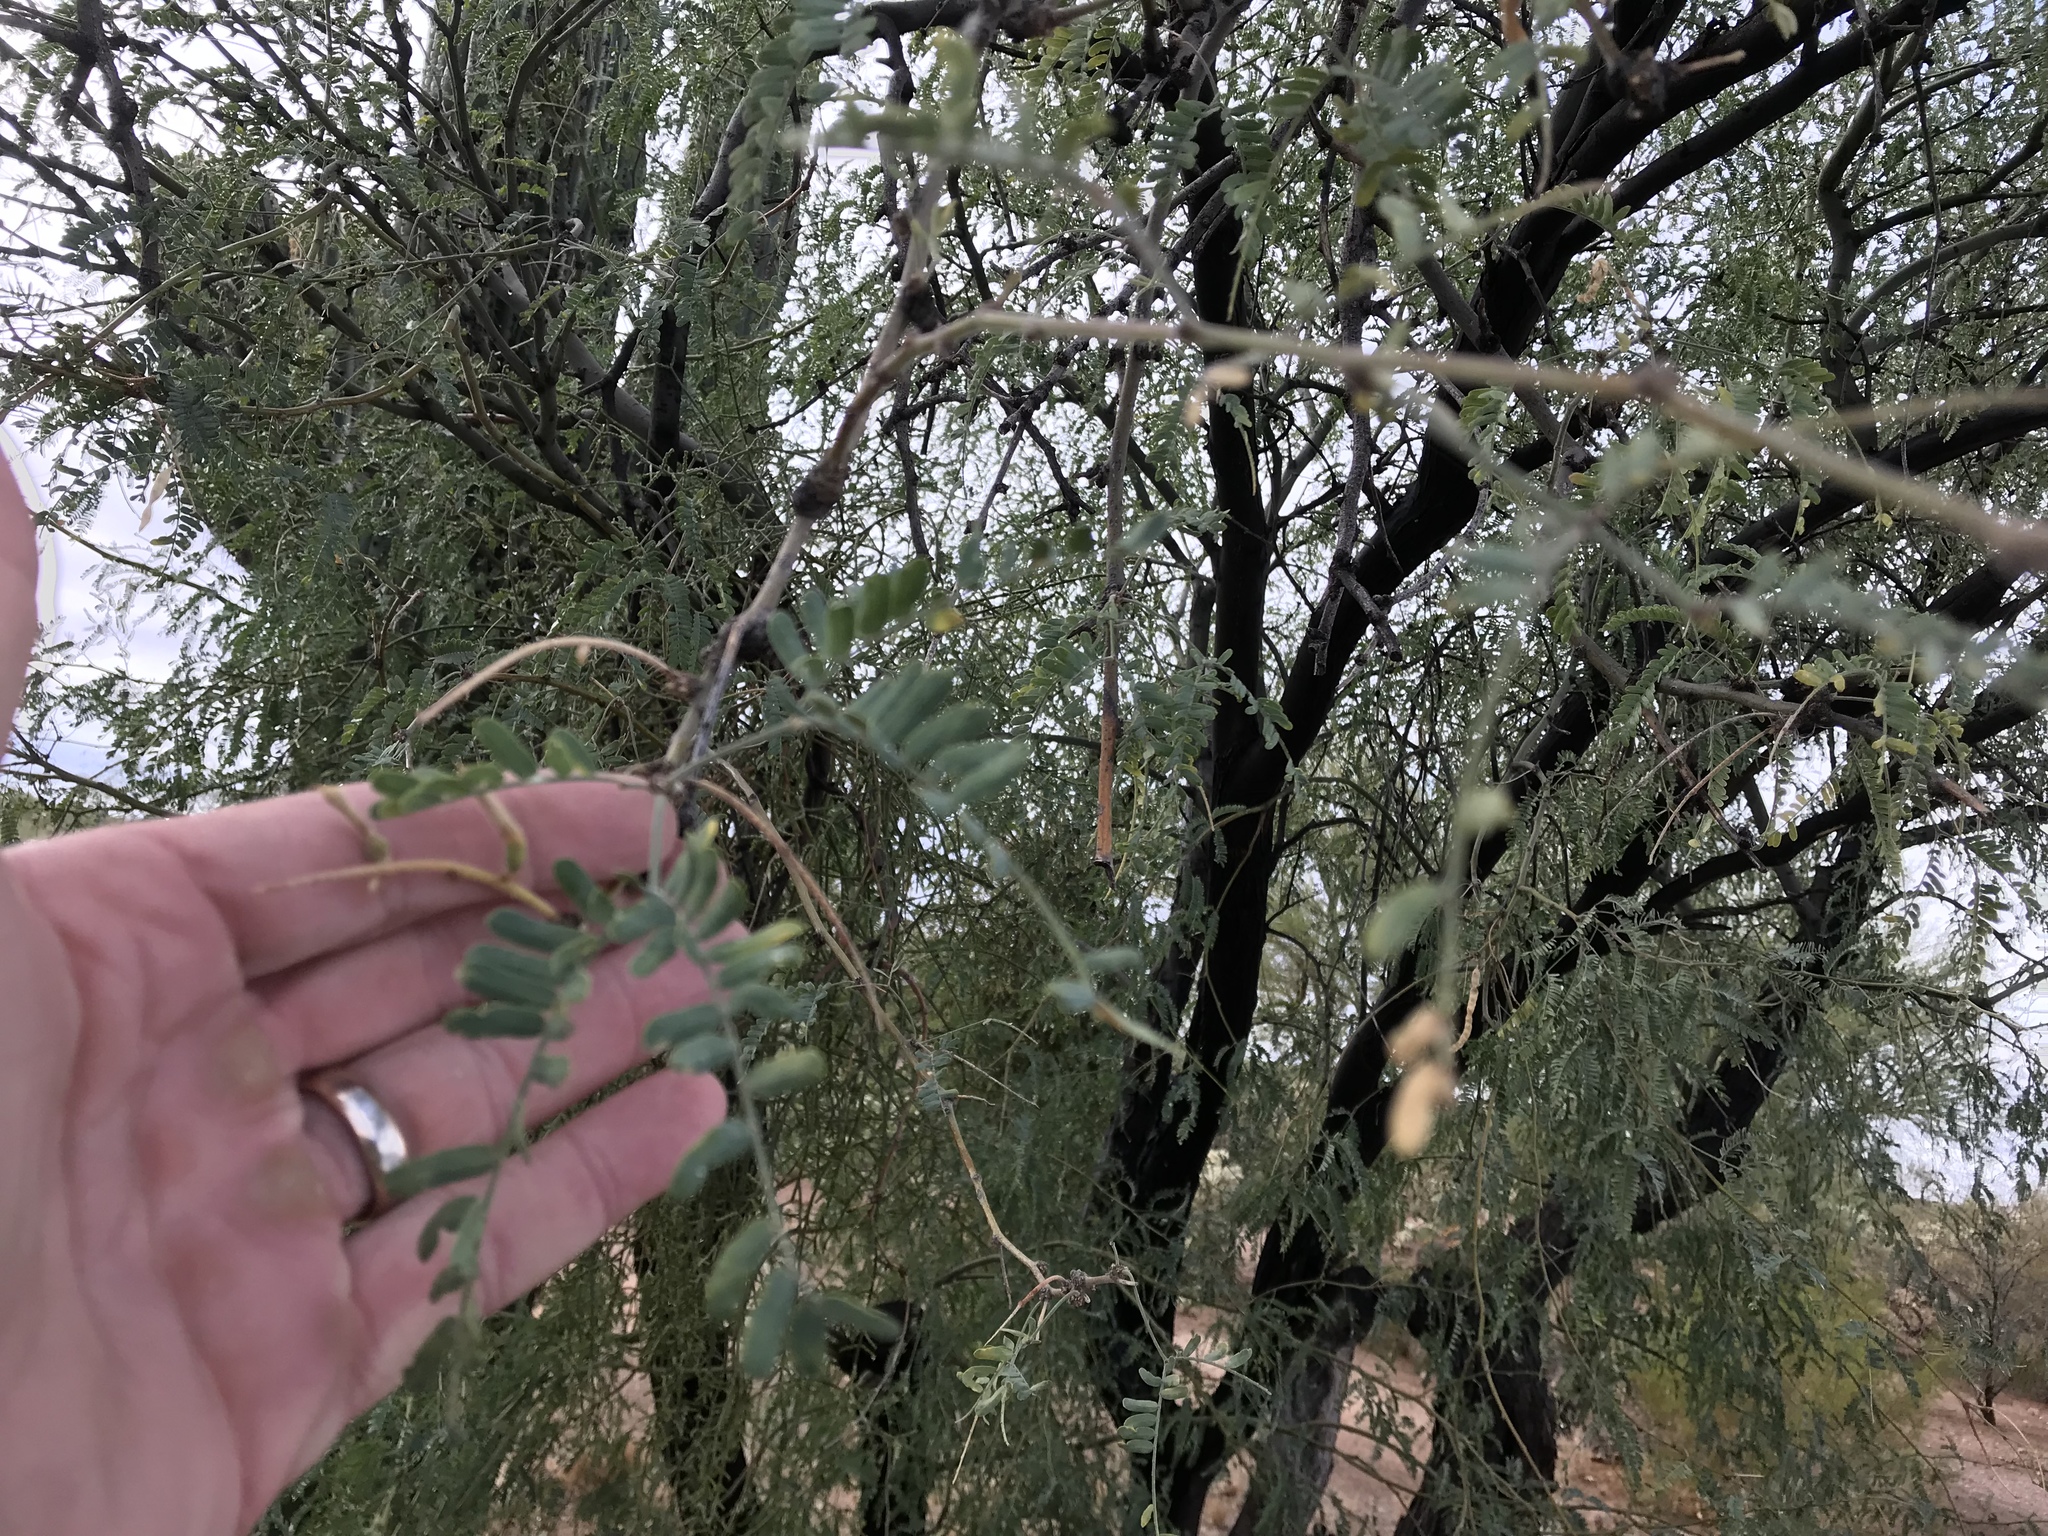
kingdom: Plantae
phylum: Tracheophyta
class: Magnoliopsida
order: Fabales
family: Fabaceae
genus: Prosopis
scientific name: Prosopis velutina
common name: Velvet mesquite
